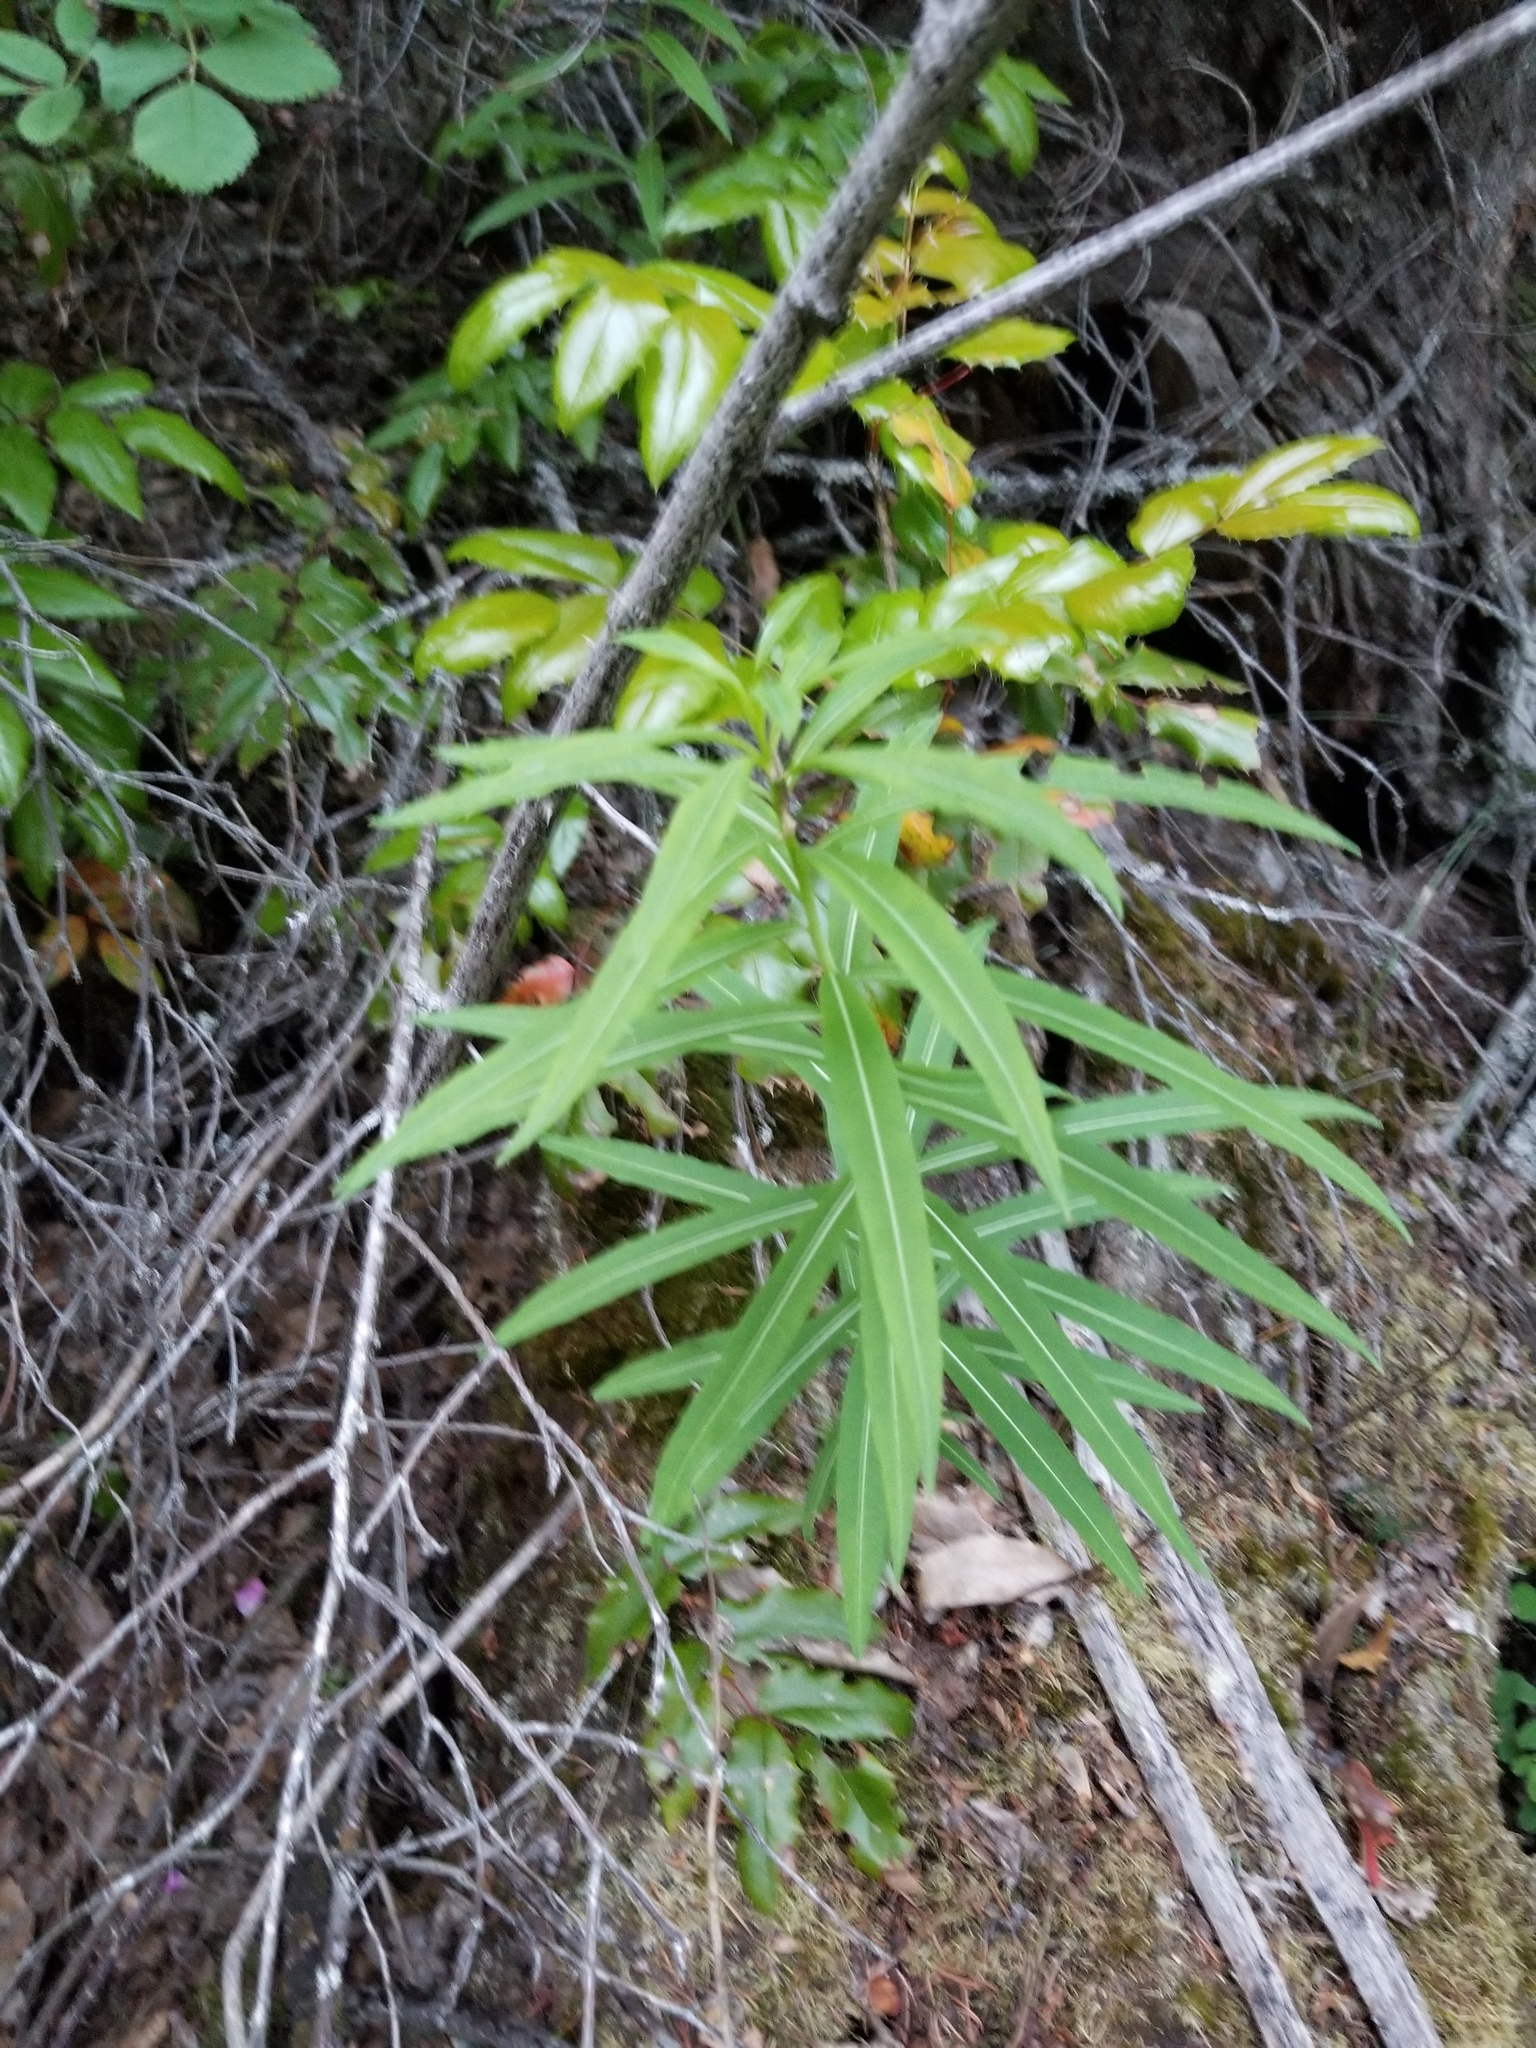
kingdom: Plantae
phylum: Tracheophyta
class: Magnoliopsida
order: Myrtales
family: Onagraceae
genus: Chamaenerion
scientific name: Chamaenerion angustifolium
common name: Fireweed
